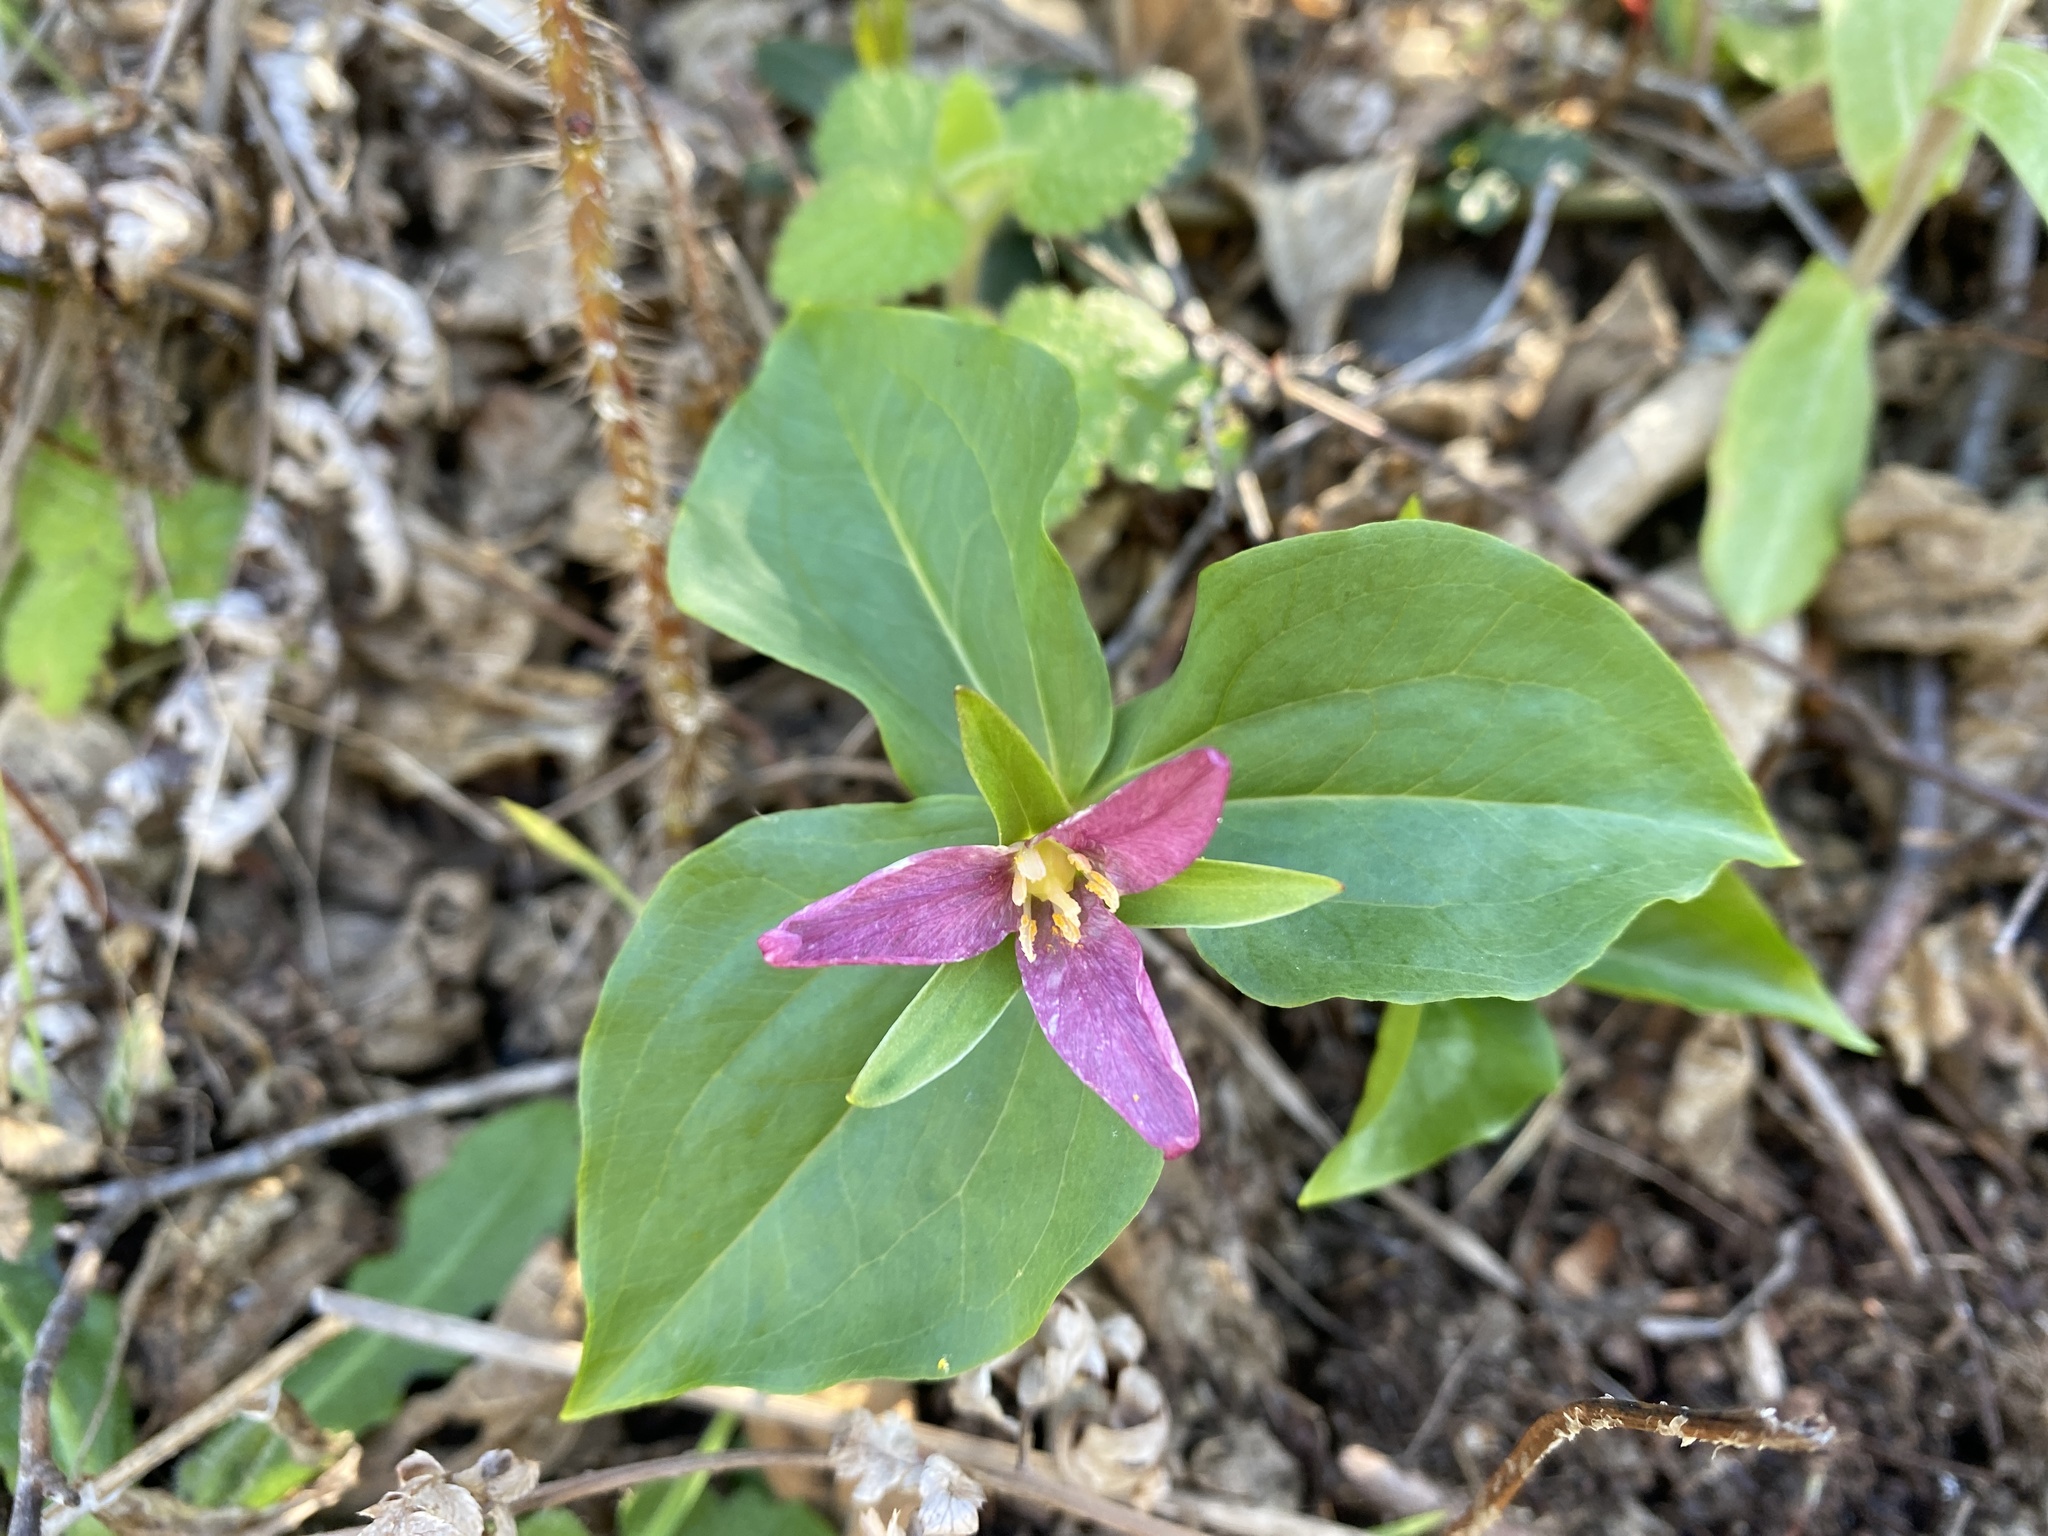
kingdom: Plantae
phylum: Tracheophyta
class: Liliopsida
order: Liliales
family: Melanthiaceae
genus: Trillium
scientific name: Trillium ovatum
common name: Pacific trillium
